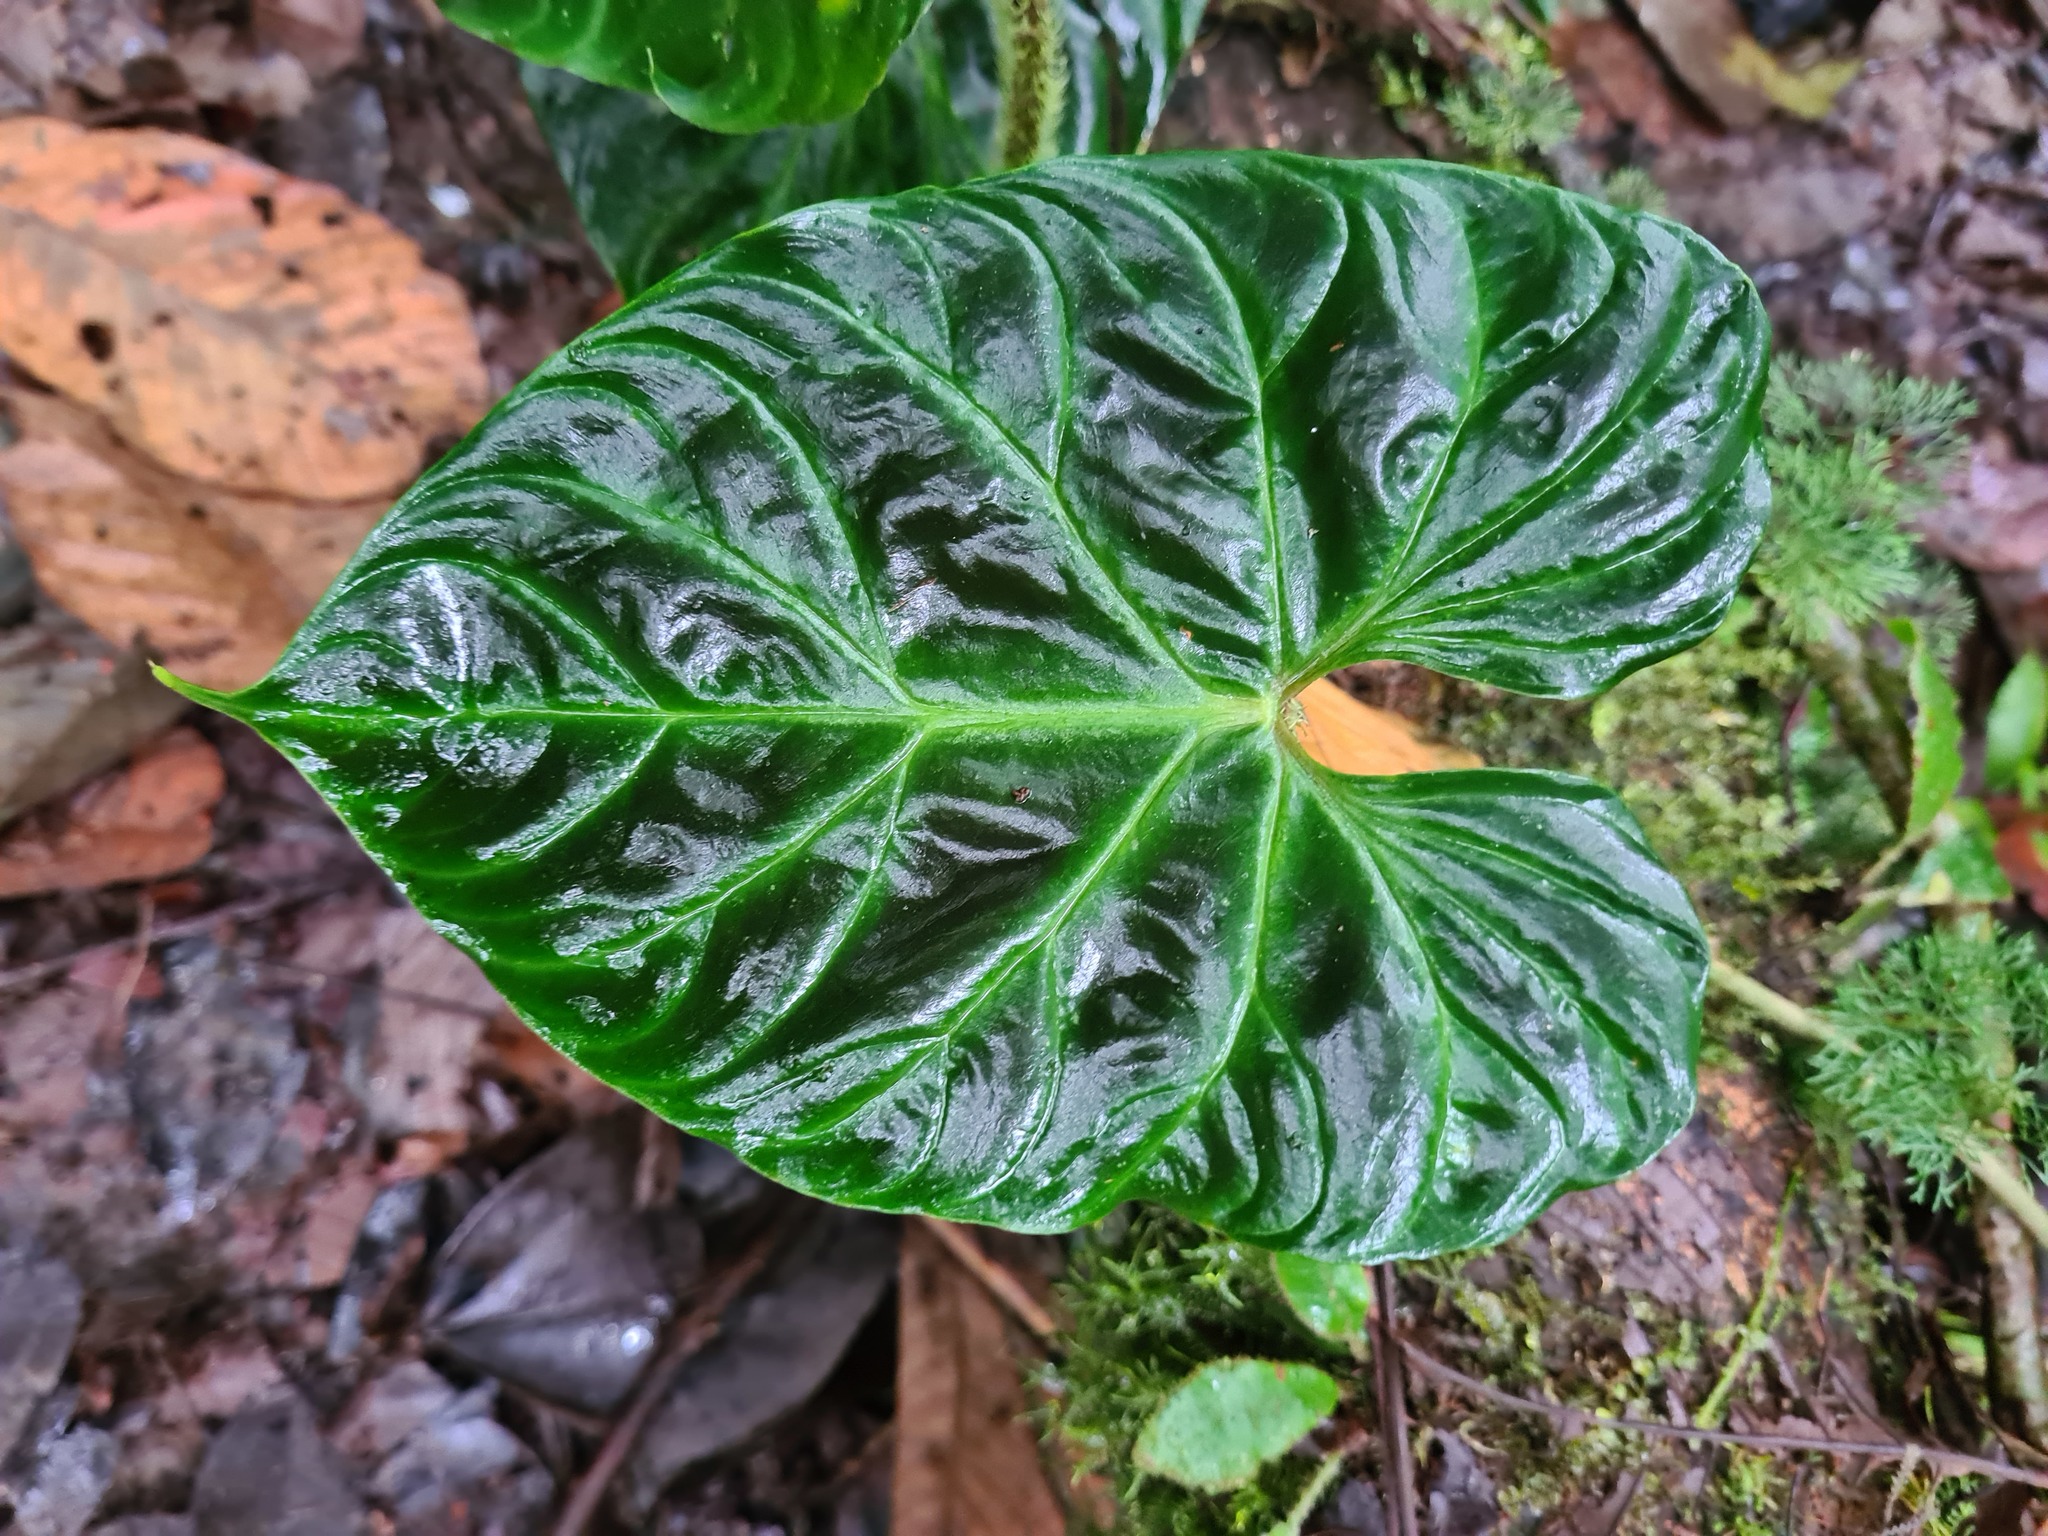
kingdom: Plantae
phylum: Tracheophyta
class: Liliopsida
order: Alismatales
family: Araceae
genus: Philodendron
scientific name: Philodendron verrucosum
